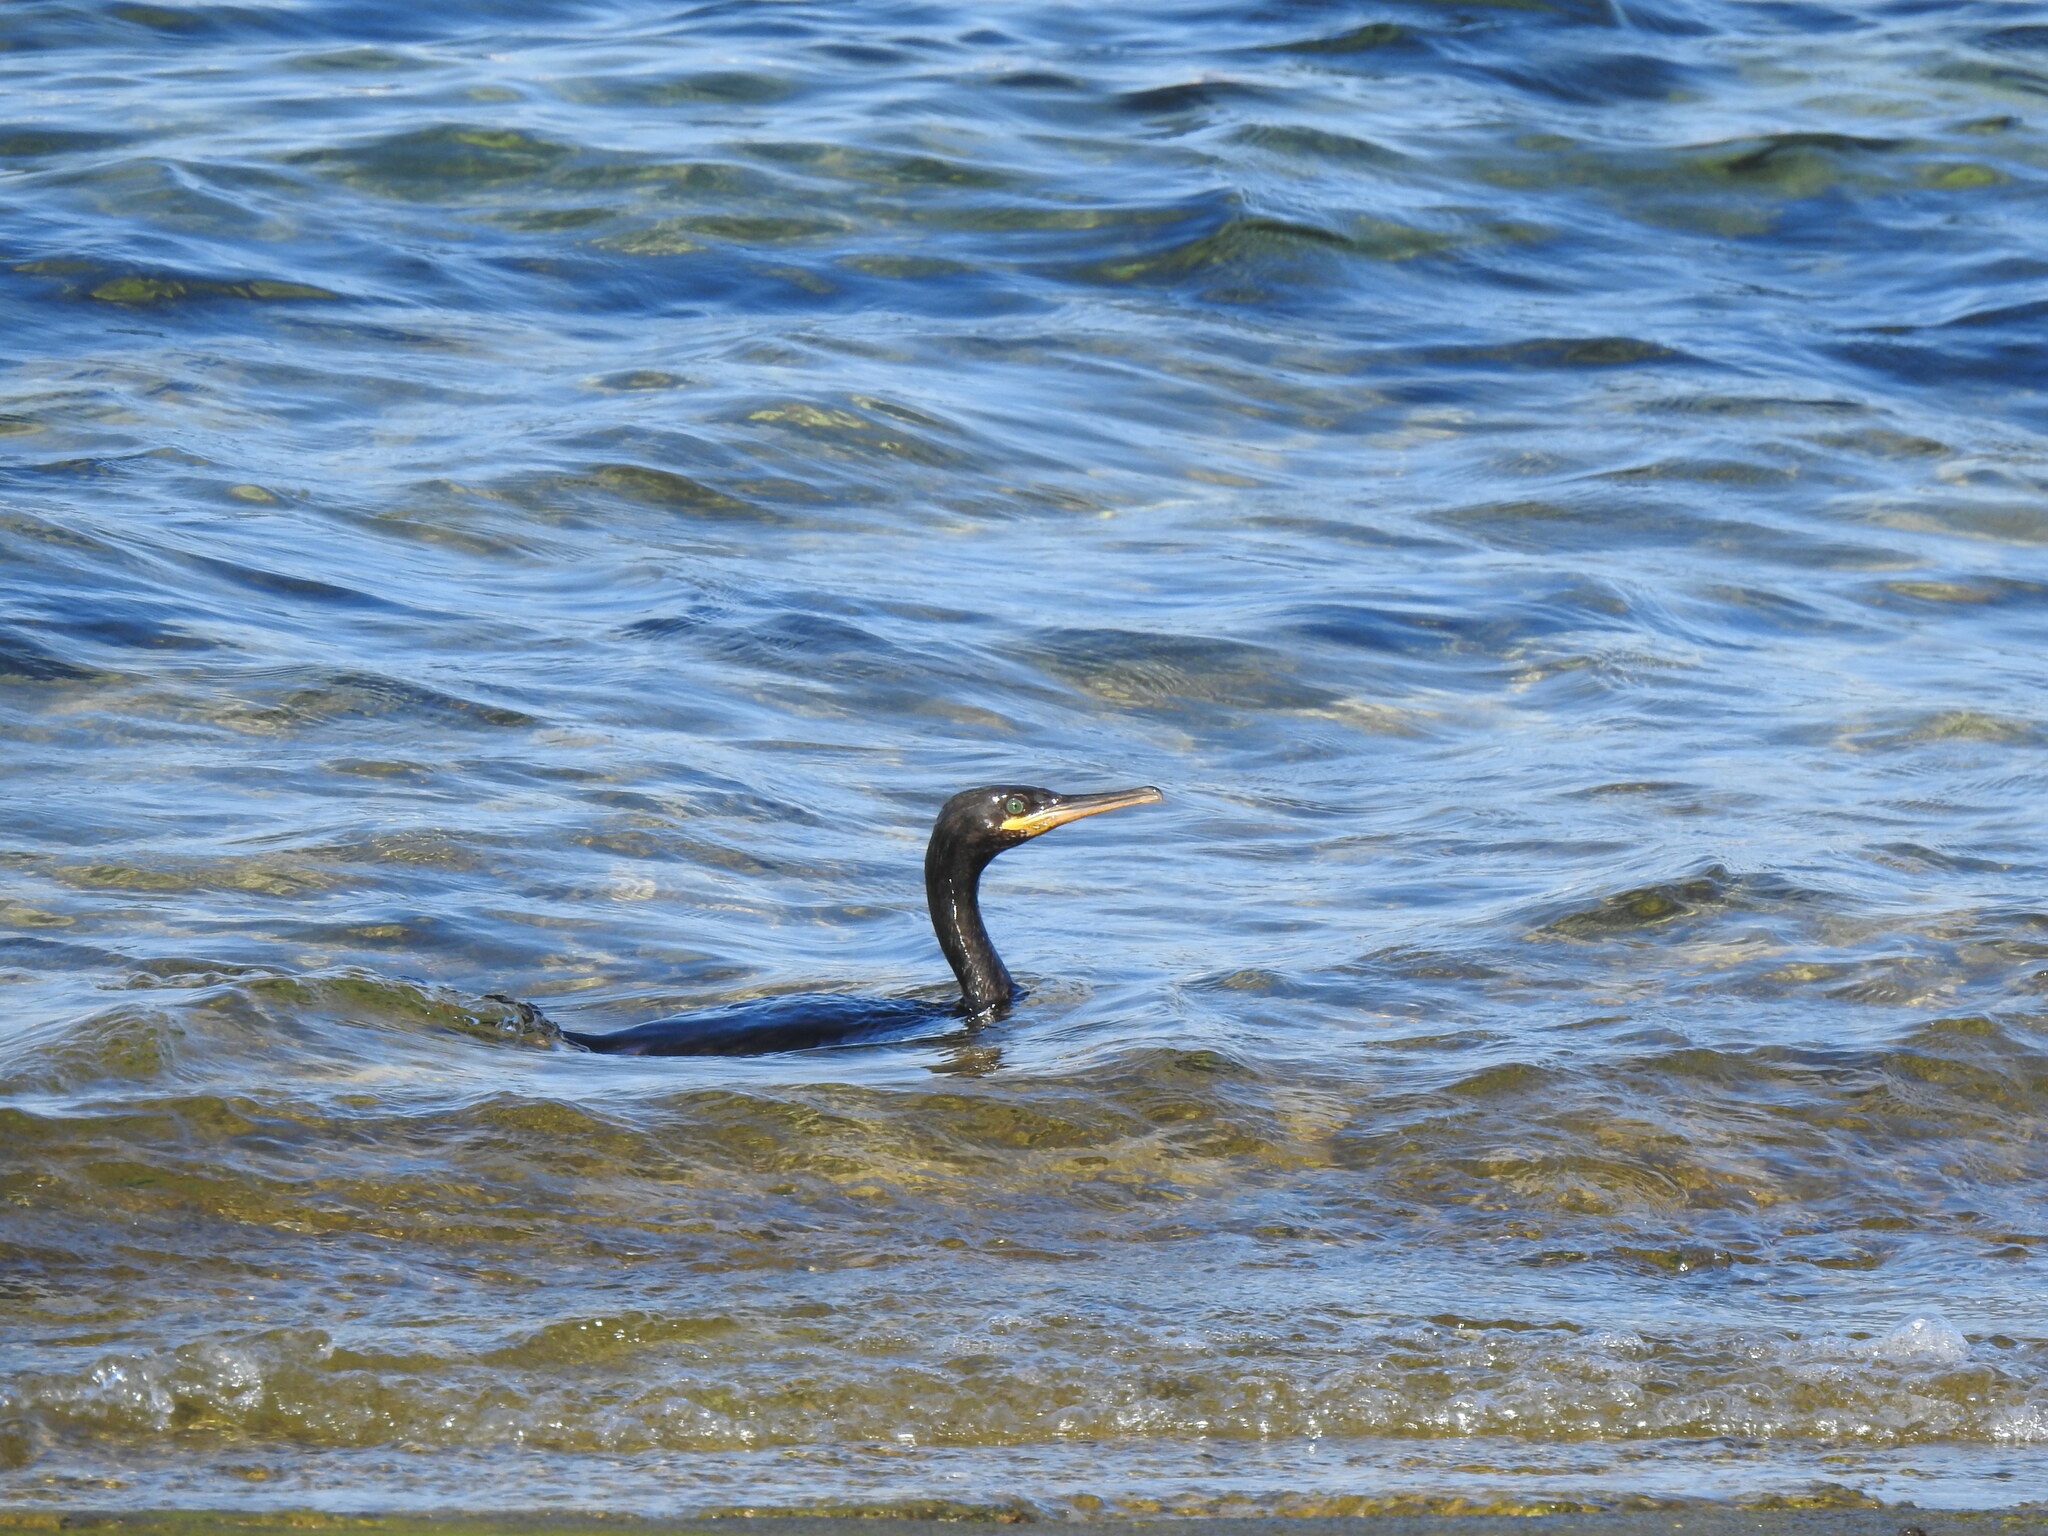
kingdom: Animalia
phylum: Chordata
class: Aves
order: Suliformes
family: Phalacrocoracidae
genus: Phalacrocorax
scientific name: Phalacrocorax aristotelis
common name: European shag
